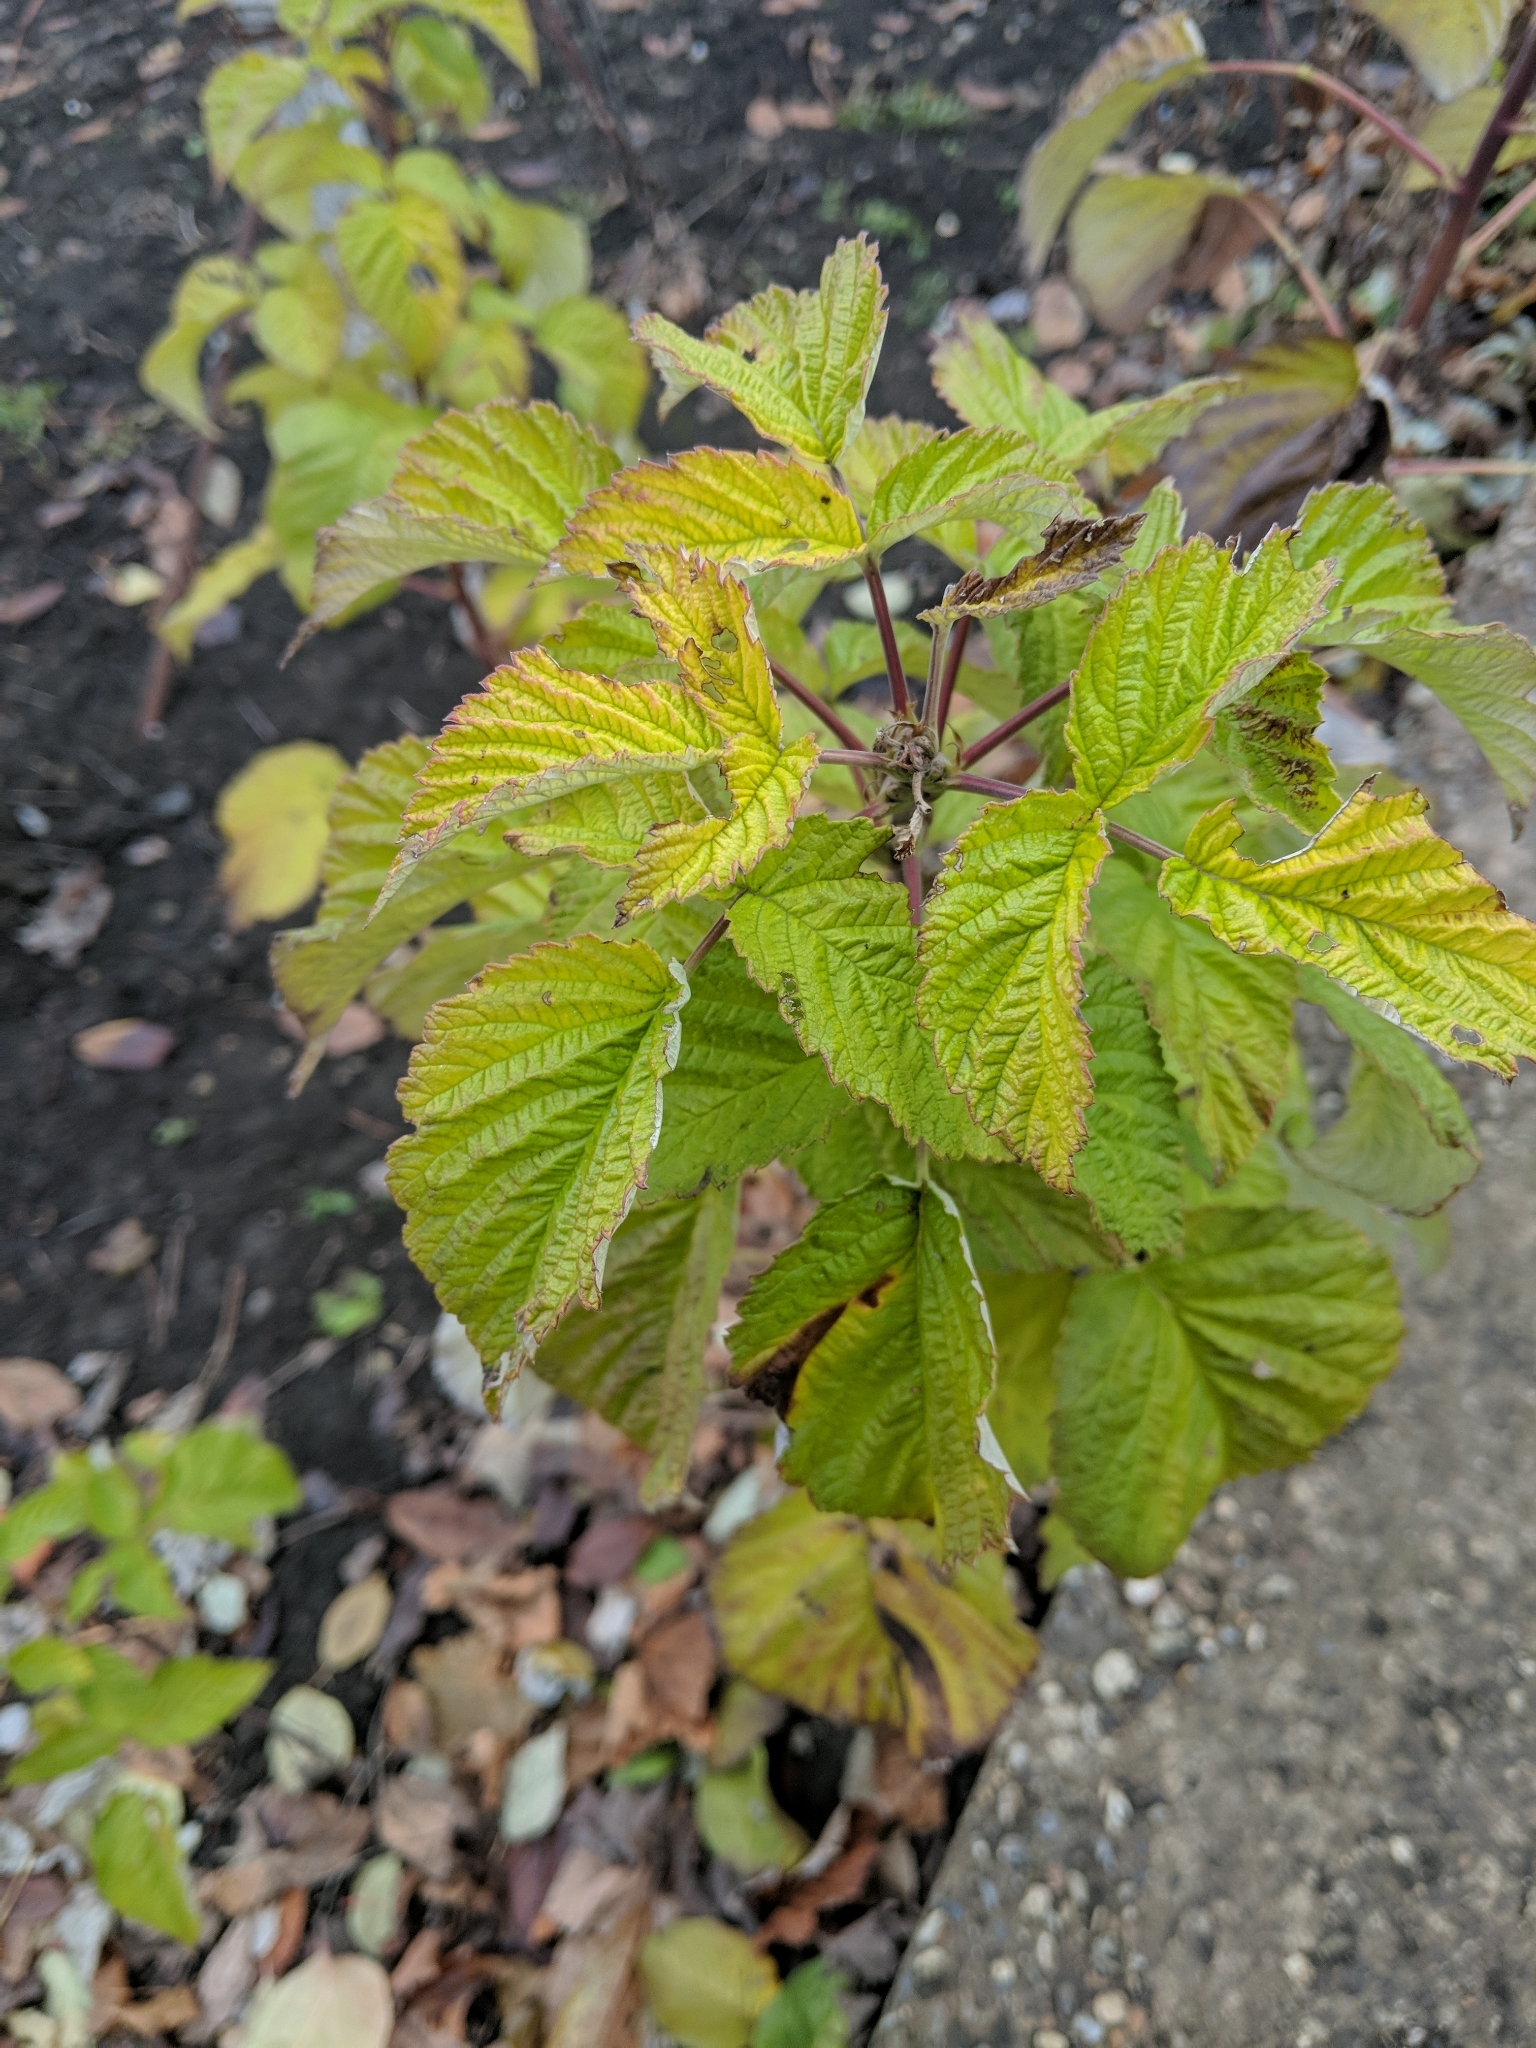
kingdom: Plantae
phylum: Tracheophyta
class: Magnoliopsida
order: Rosales
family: Rosaceae
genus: Rubus
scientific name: Rubus idaeus
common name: Raspberry
